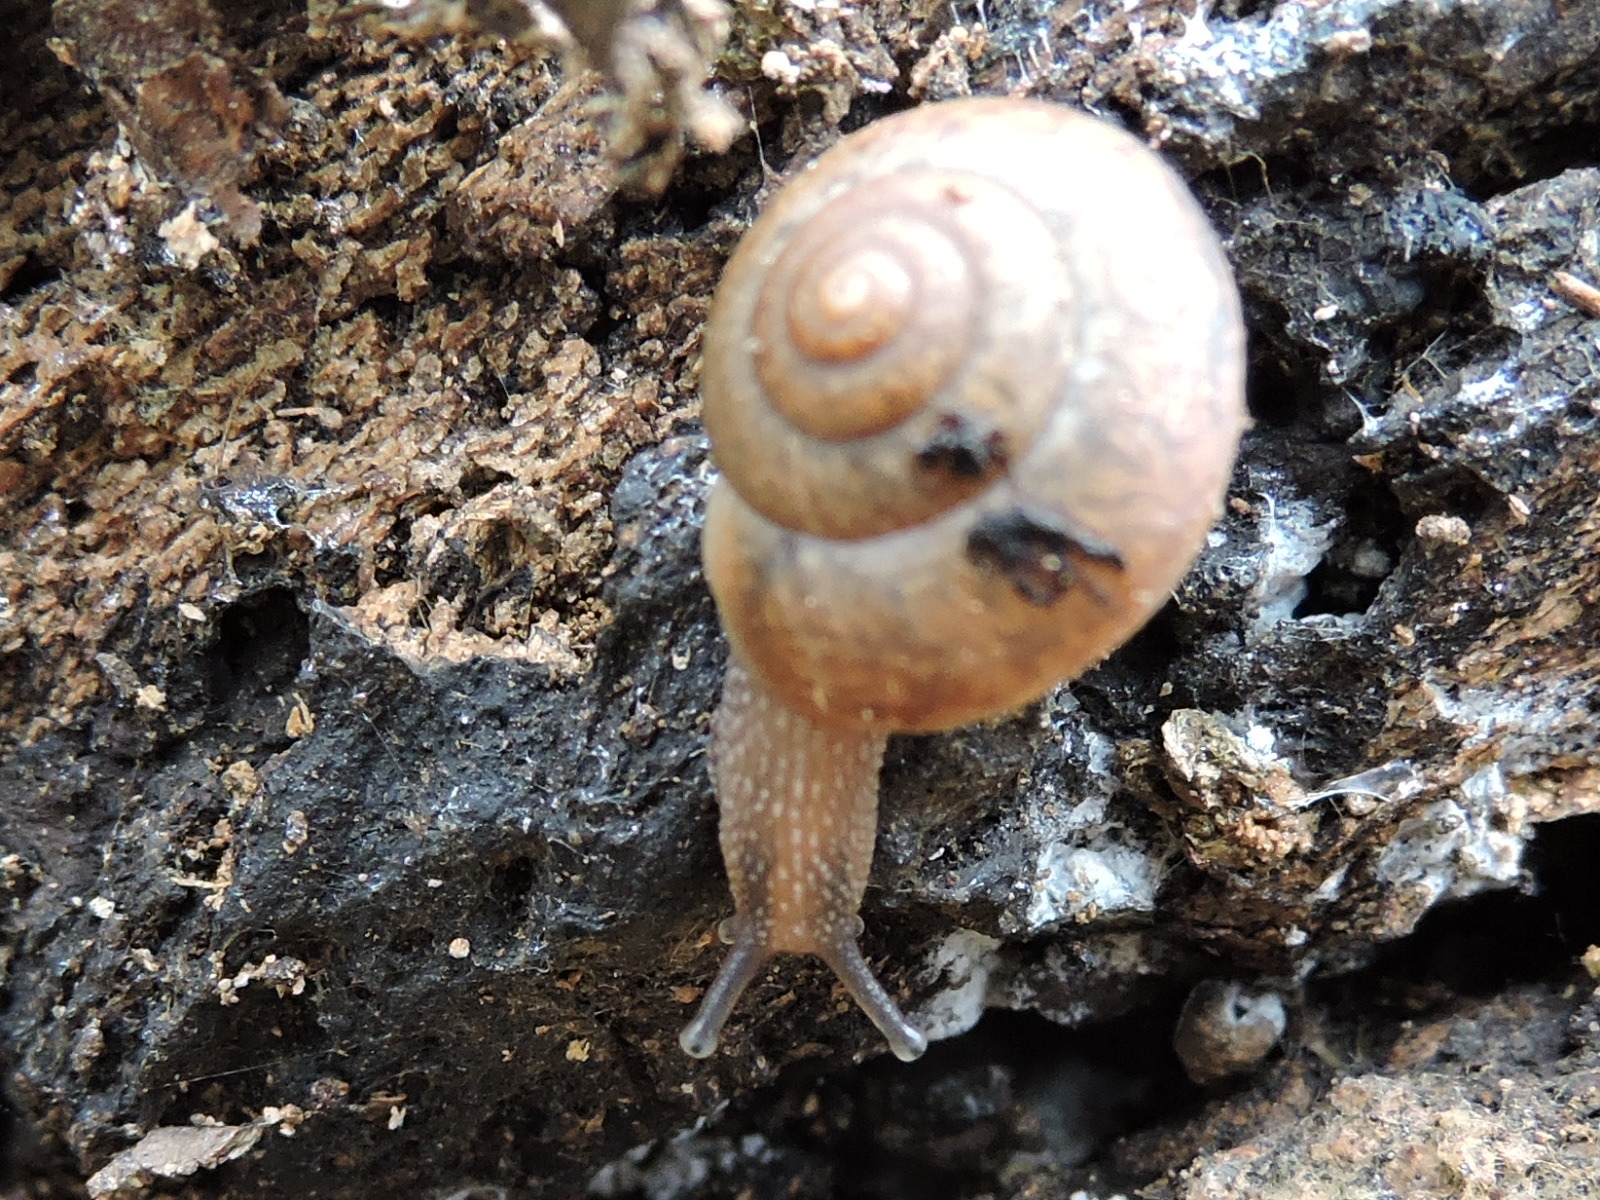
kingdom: Animalia
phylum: Mollusca
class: Gastropoda
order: Stylommatophora
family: Camaenidae
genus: Bradybaena
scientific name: Bradybaena similaris
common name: Asian trampsnail
